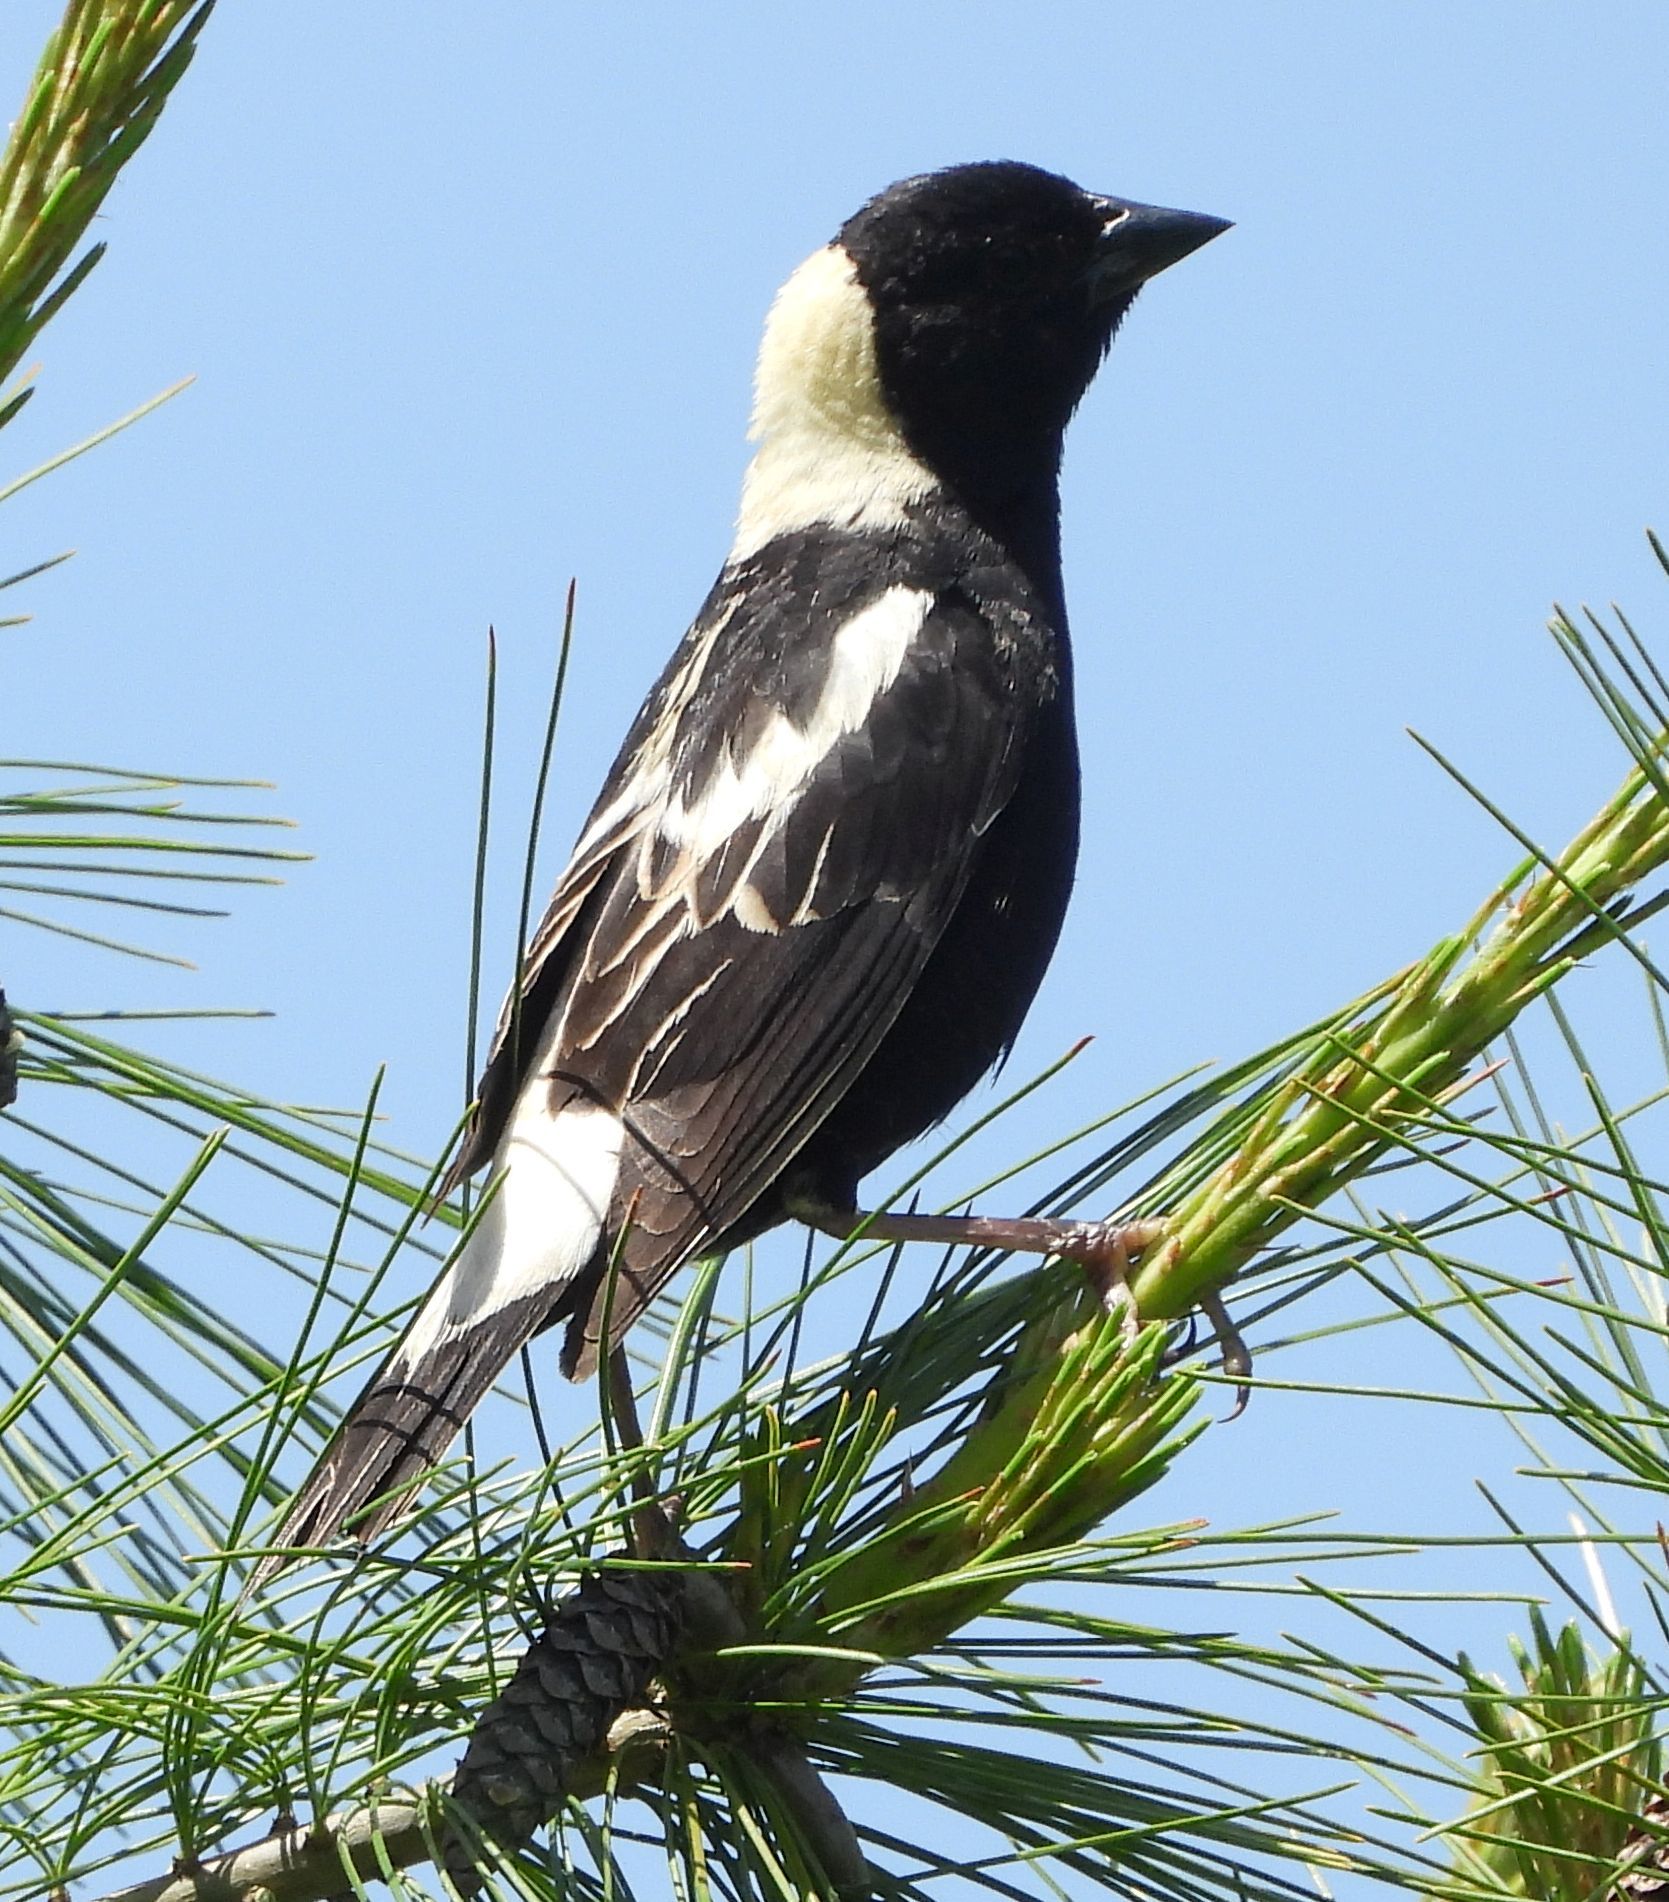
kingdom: Animalia
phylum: Chordata
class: Aves
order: Passeriformes
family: Icteridae
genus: Dolichonyx
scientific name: Dolichonyx oryzivorus
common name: Bobolink
